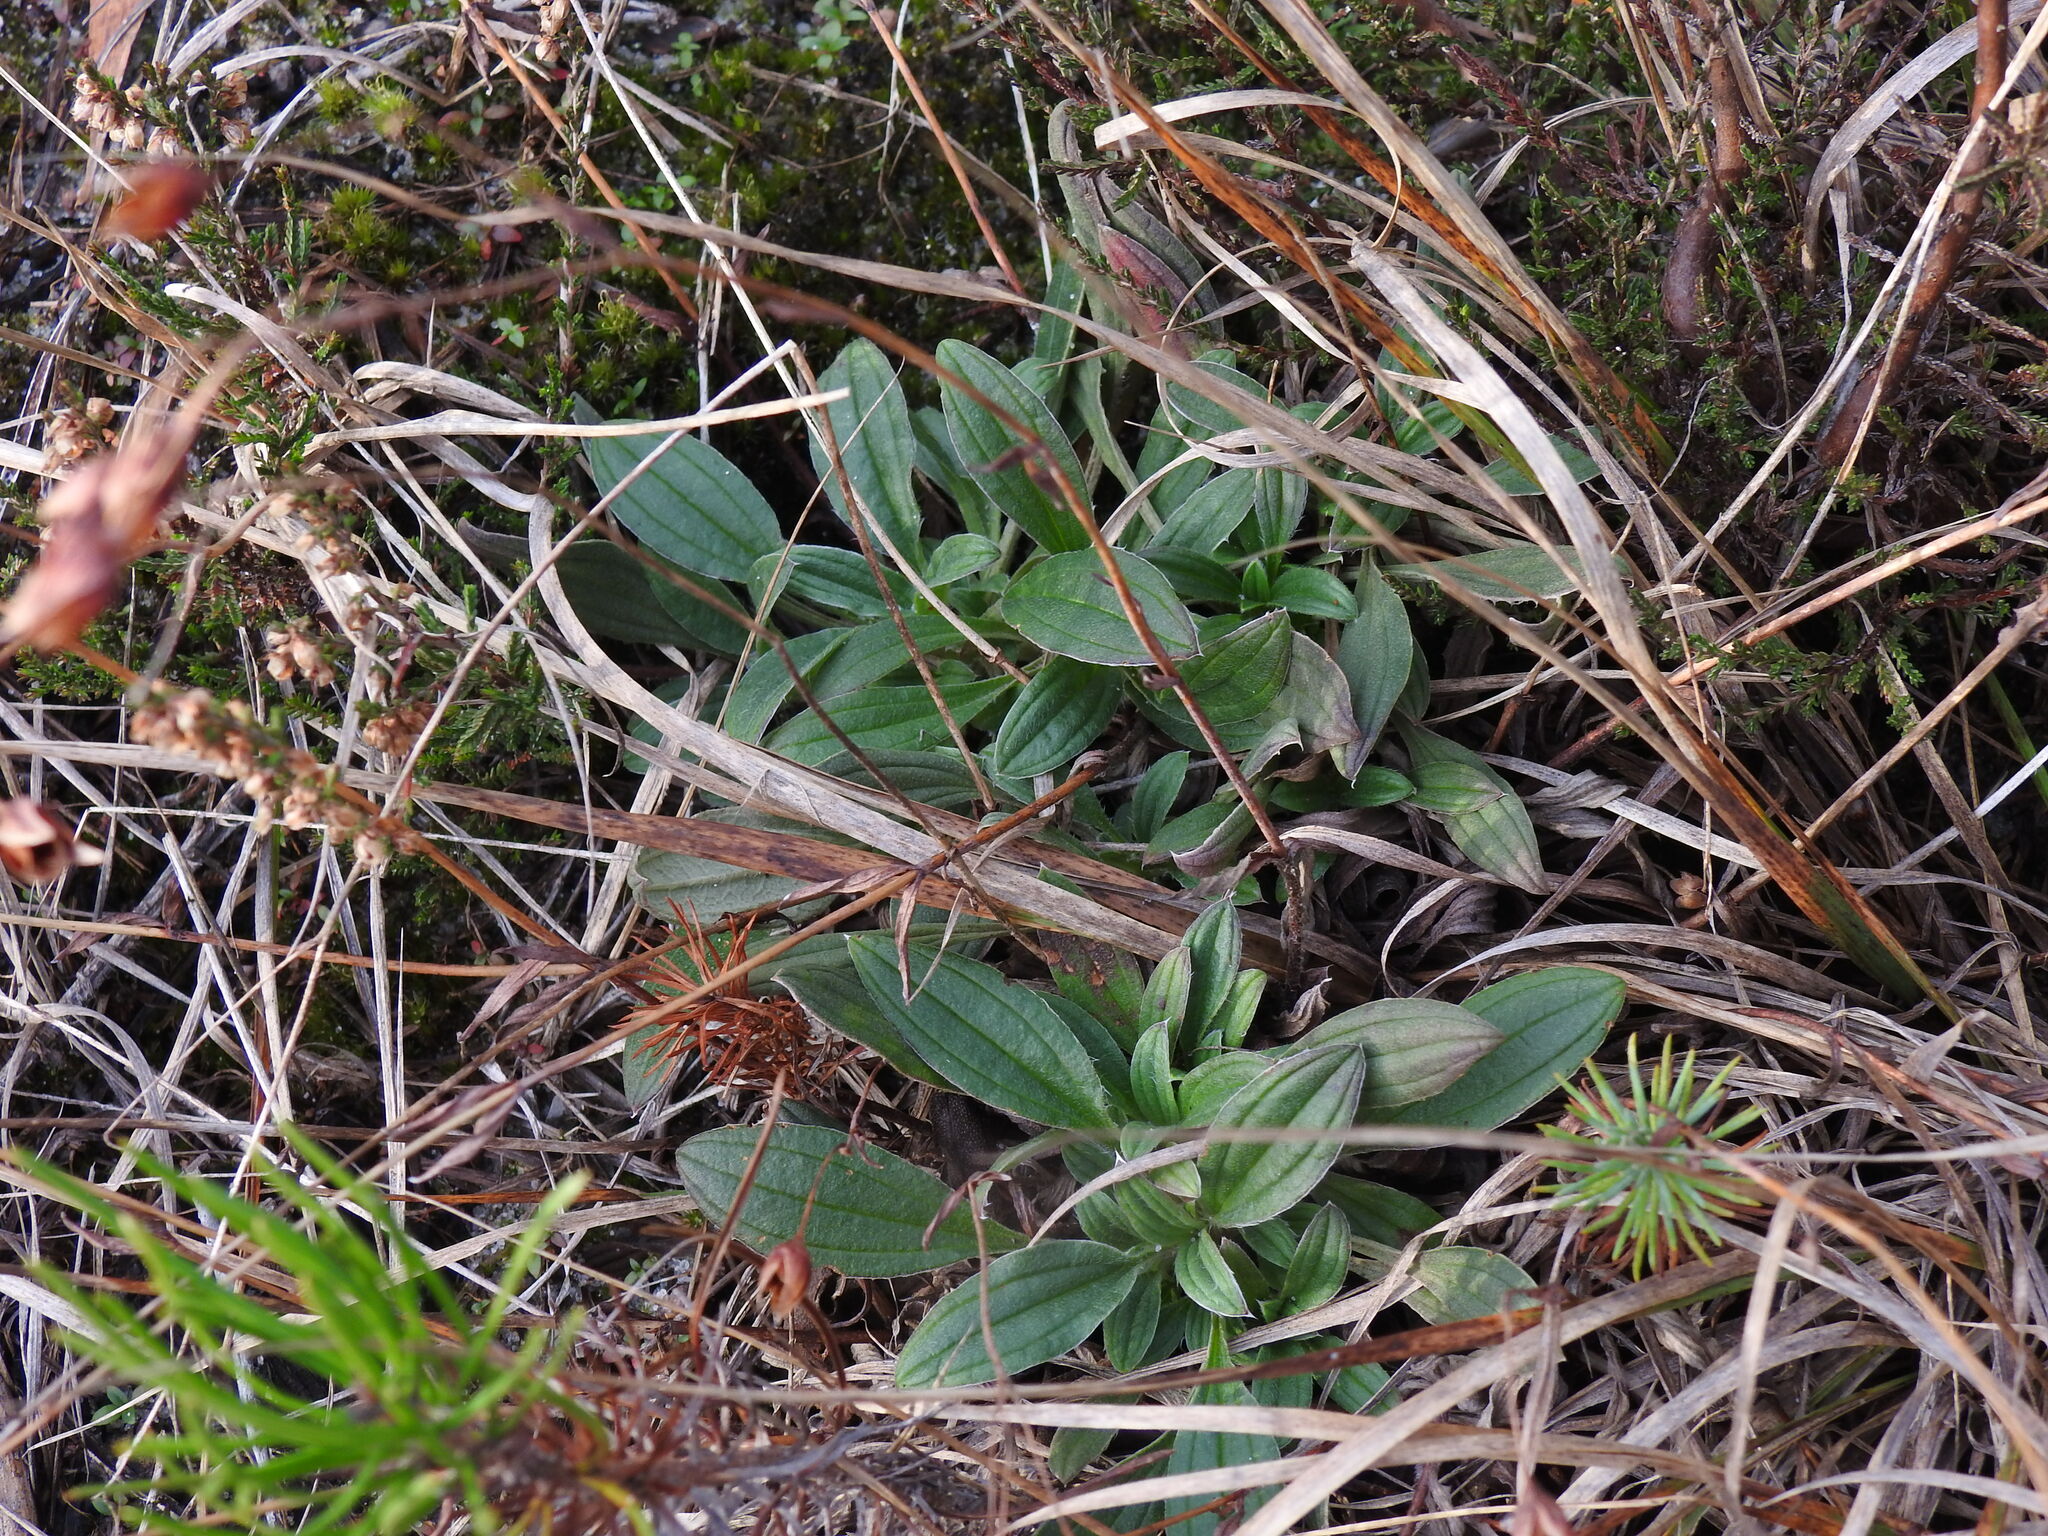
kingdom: Plantae
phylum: Tracheophyta
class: Magnoliopsida
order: Malvales
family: Cistaceae
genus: Tuberaria
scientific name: Tuberaria lignosa
